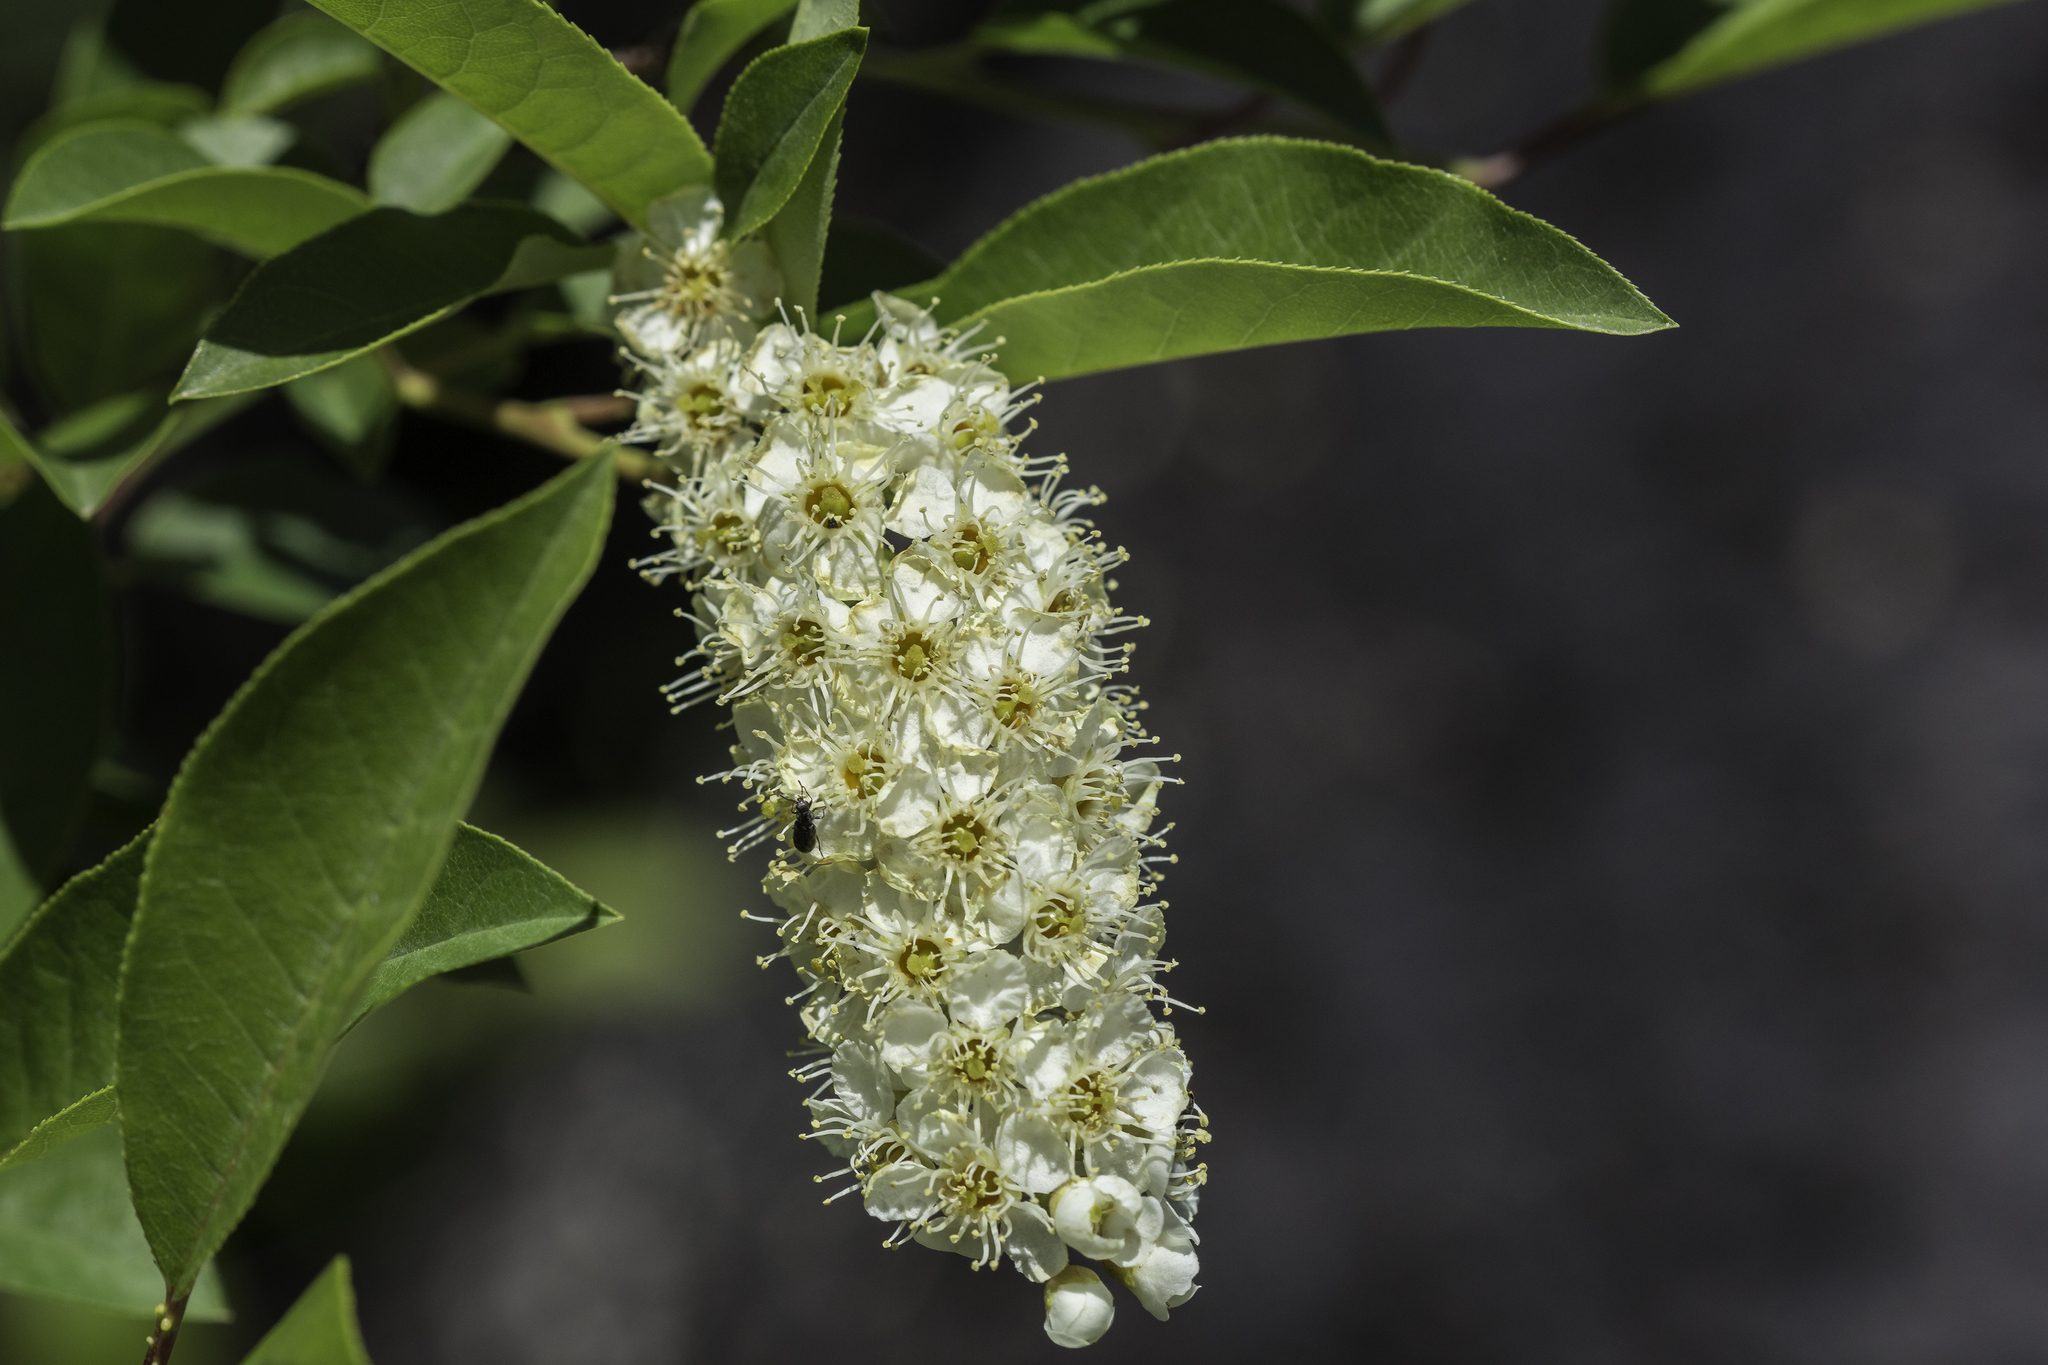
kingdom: Plantae
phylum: Tracheophyta
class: Magnoliopsida
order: Rosales
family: Rosaceae
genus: Prunus
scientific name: Prunus virginiana
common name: Chokecherry
